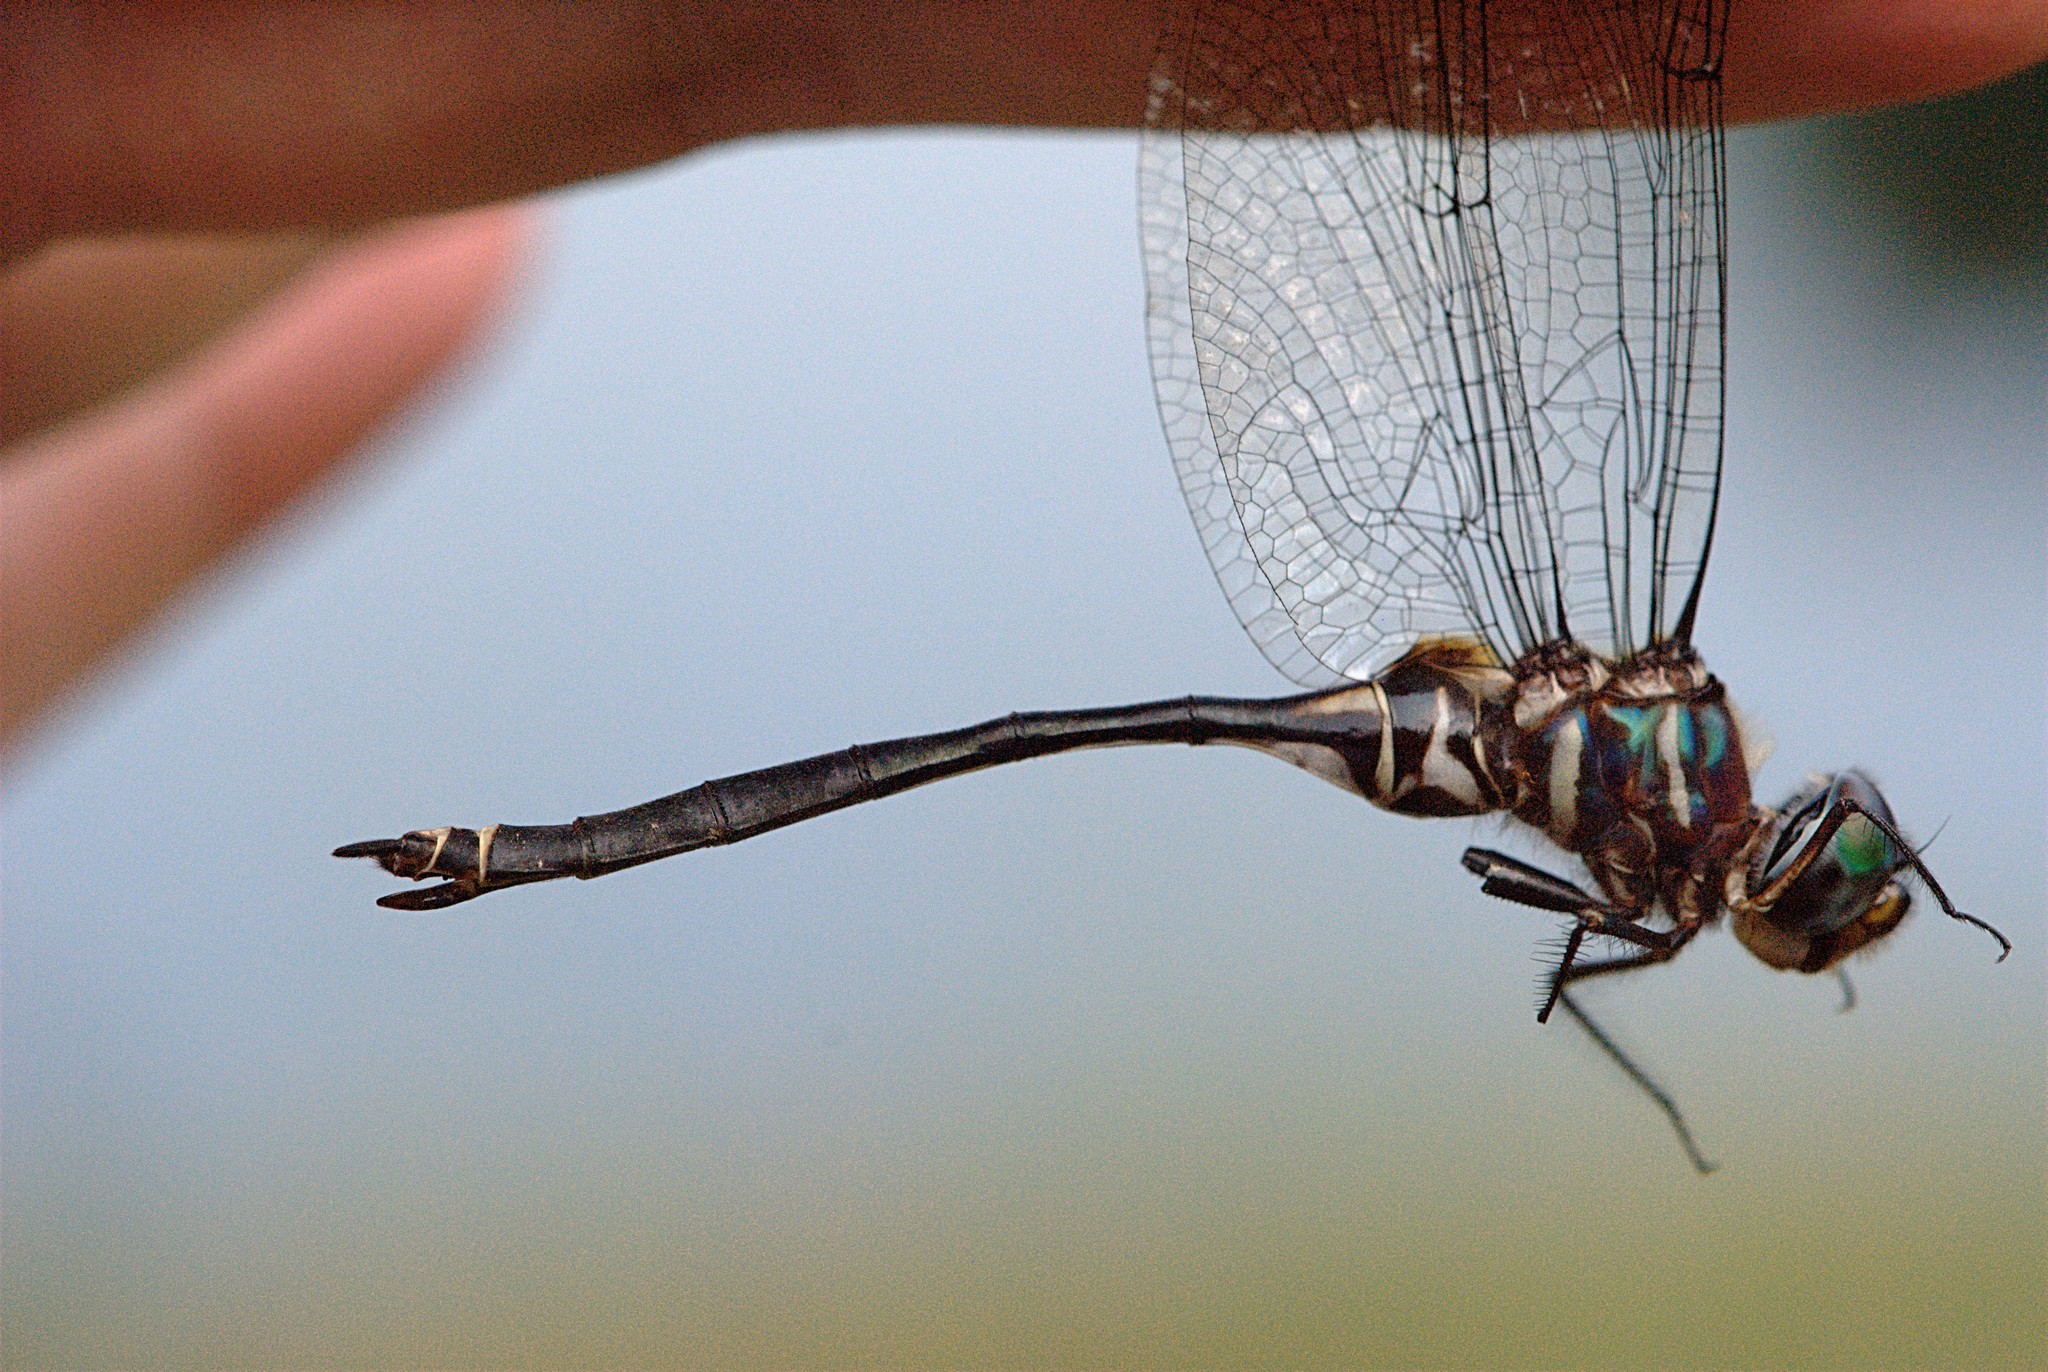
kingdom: Animalia
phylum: Arthropoda
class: Insecta
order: Odonata
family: Corduliidae
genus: Somatochlora
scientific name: Somatochlora provocans
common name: Treetop emerald
